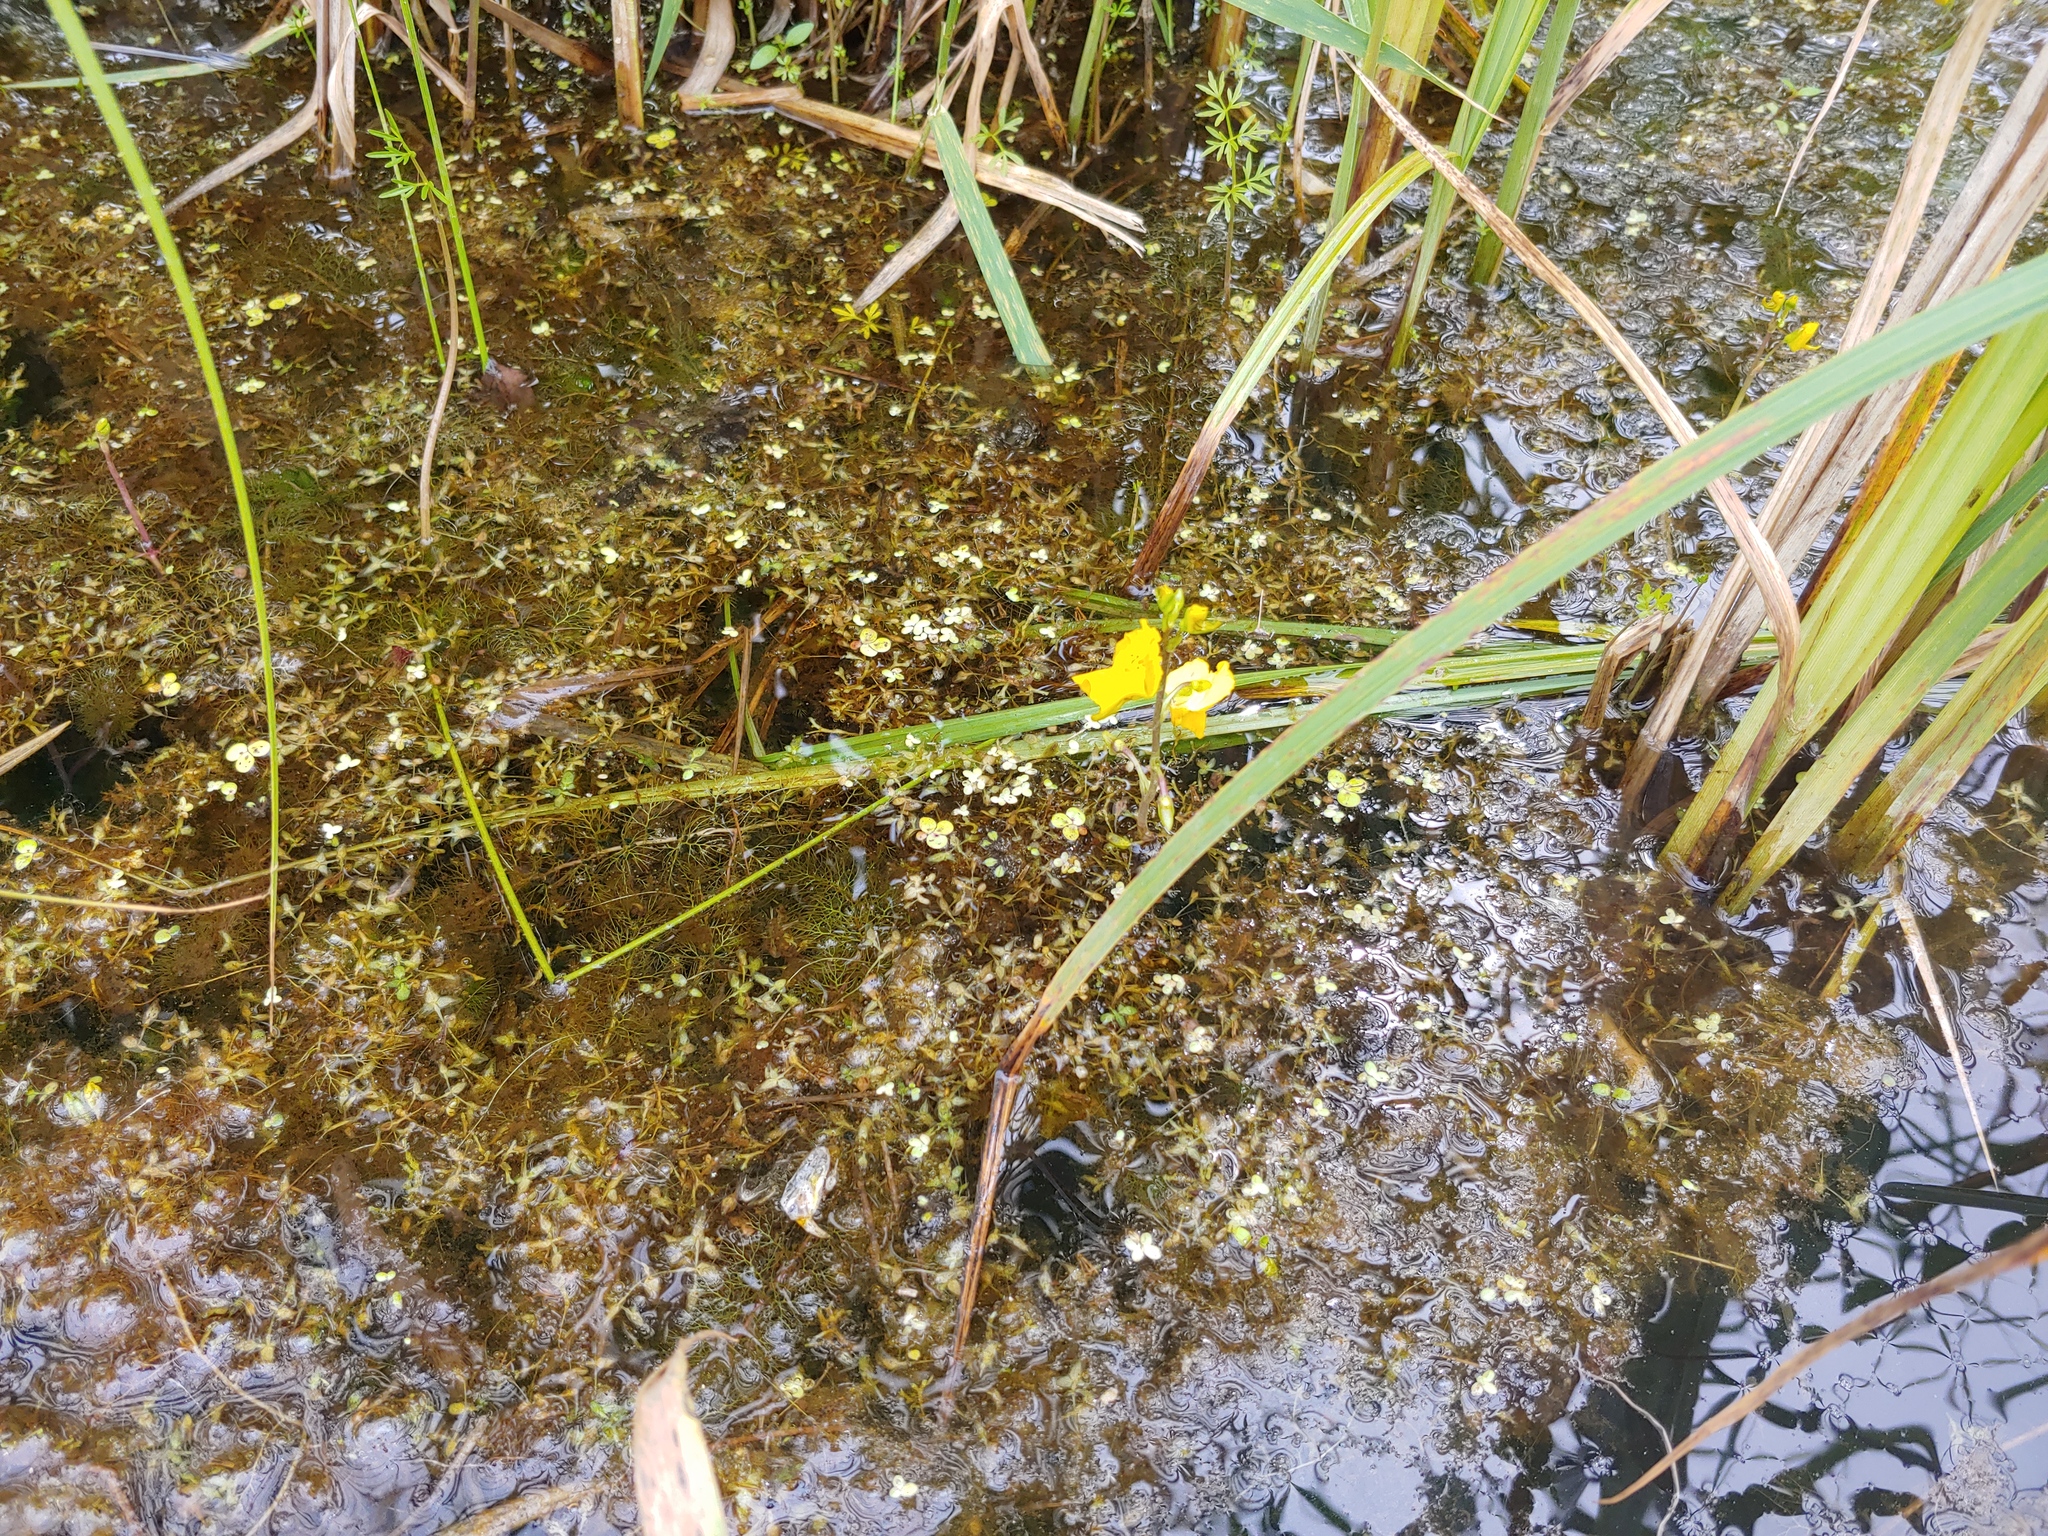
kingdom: Plantae
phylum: Tracheophyta
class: Magnoliopsida
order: Apiales
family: Apiaceae
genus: Cicuta
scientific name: Cicuta bulbifera
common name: Bulb-bearing water-hemlock
